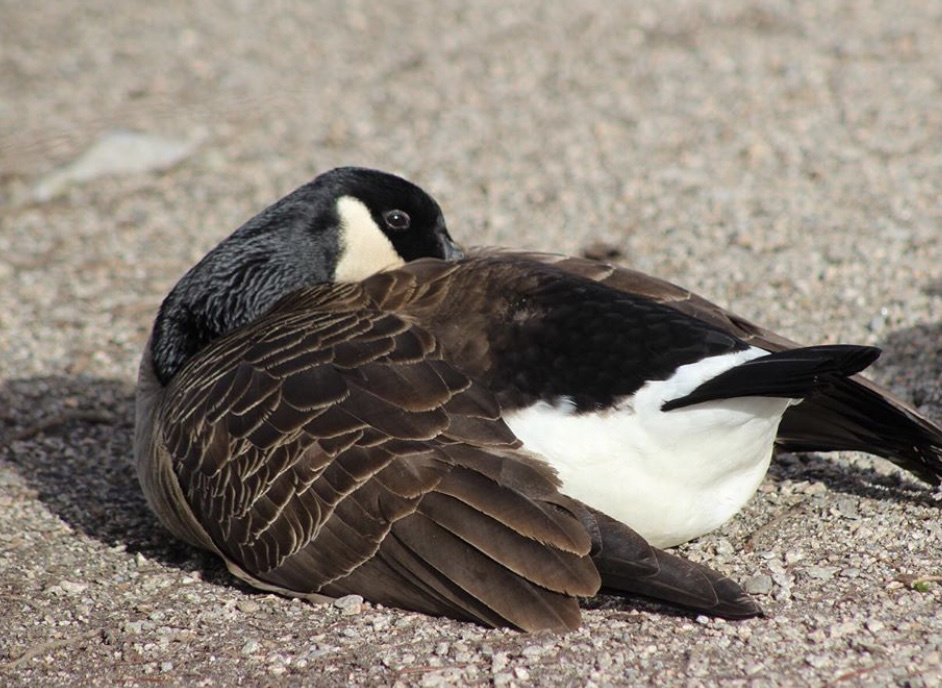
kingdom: Animalia
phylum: Chordata
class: Aves
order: Anseriformes
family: Anatidae
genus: Branta
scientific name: Branta canadensis
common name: Canada goose
